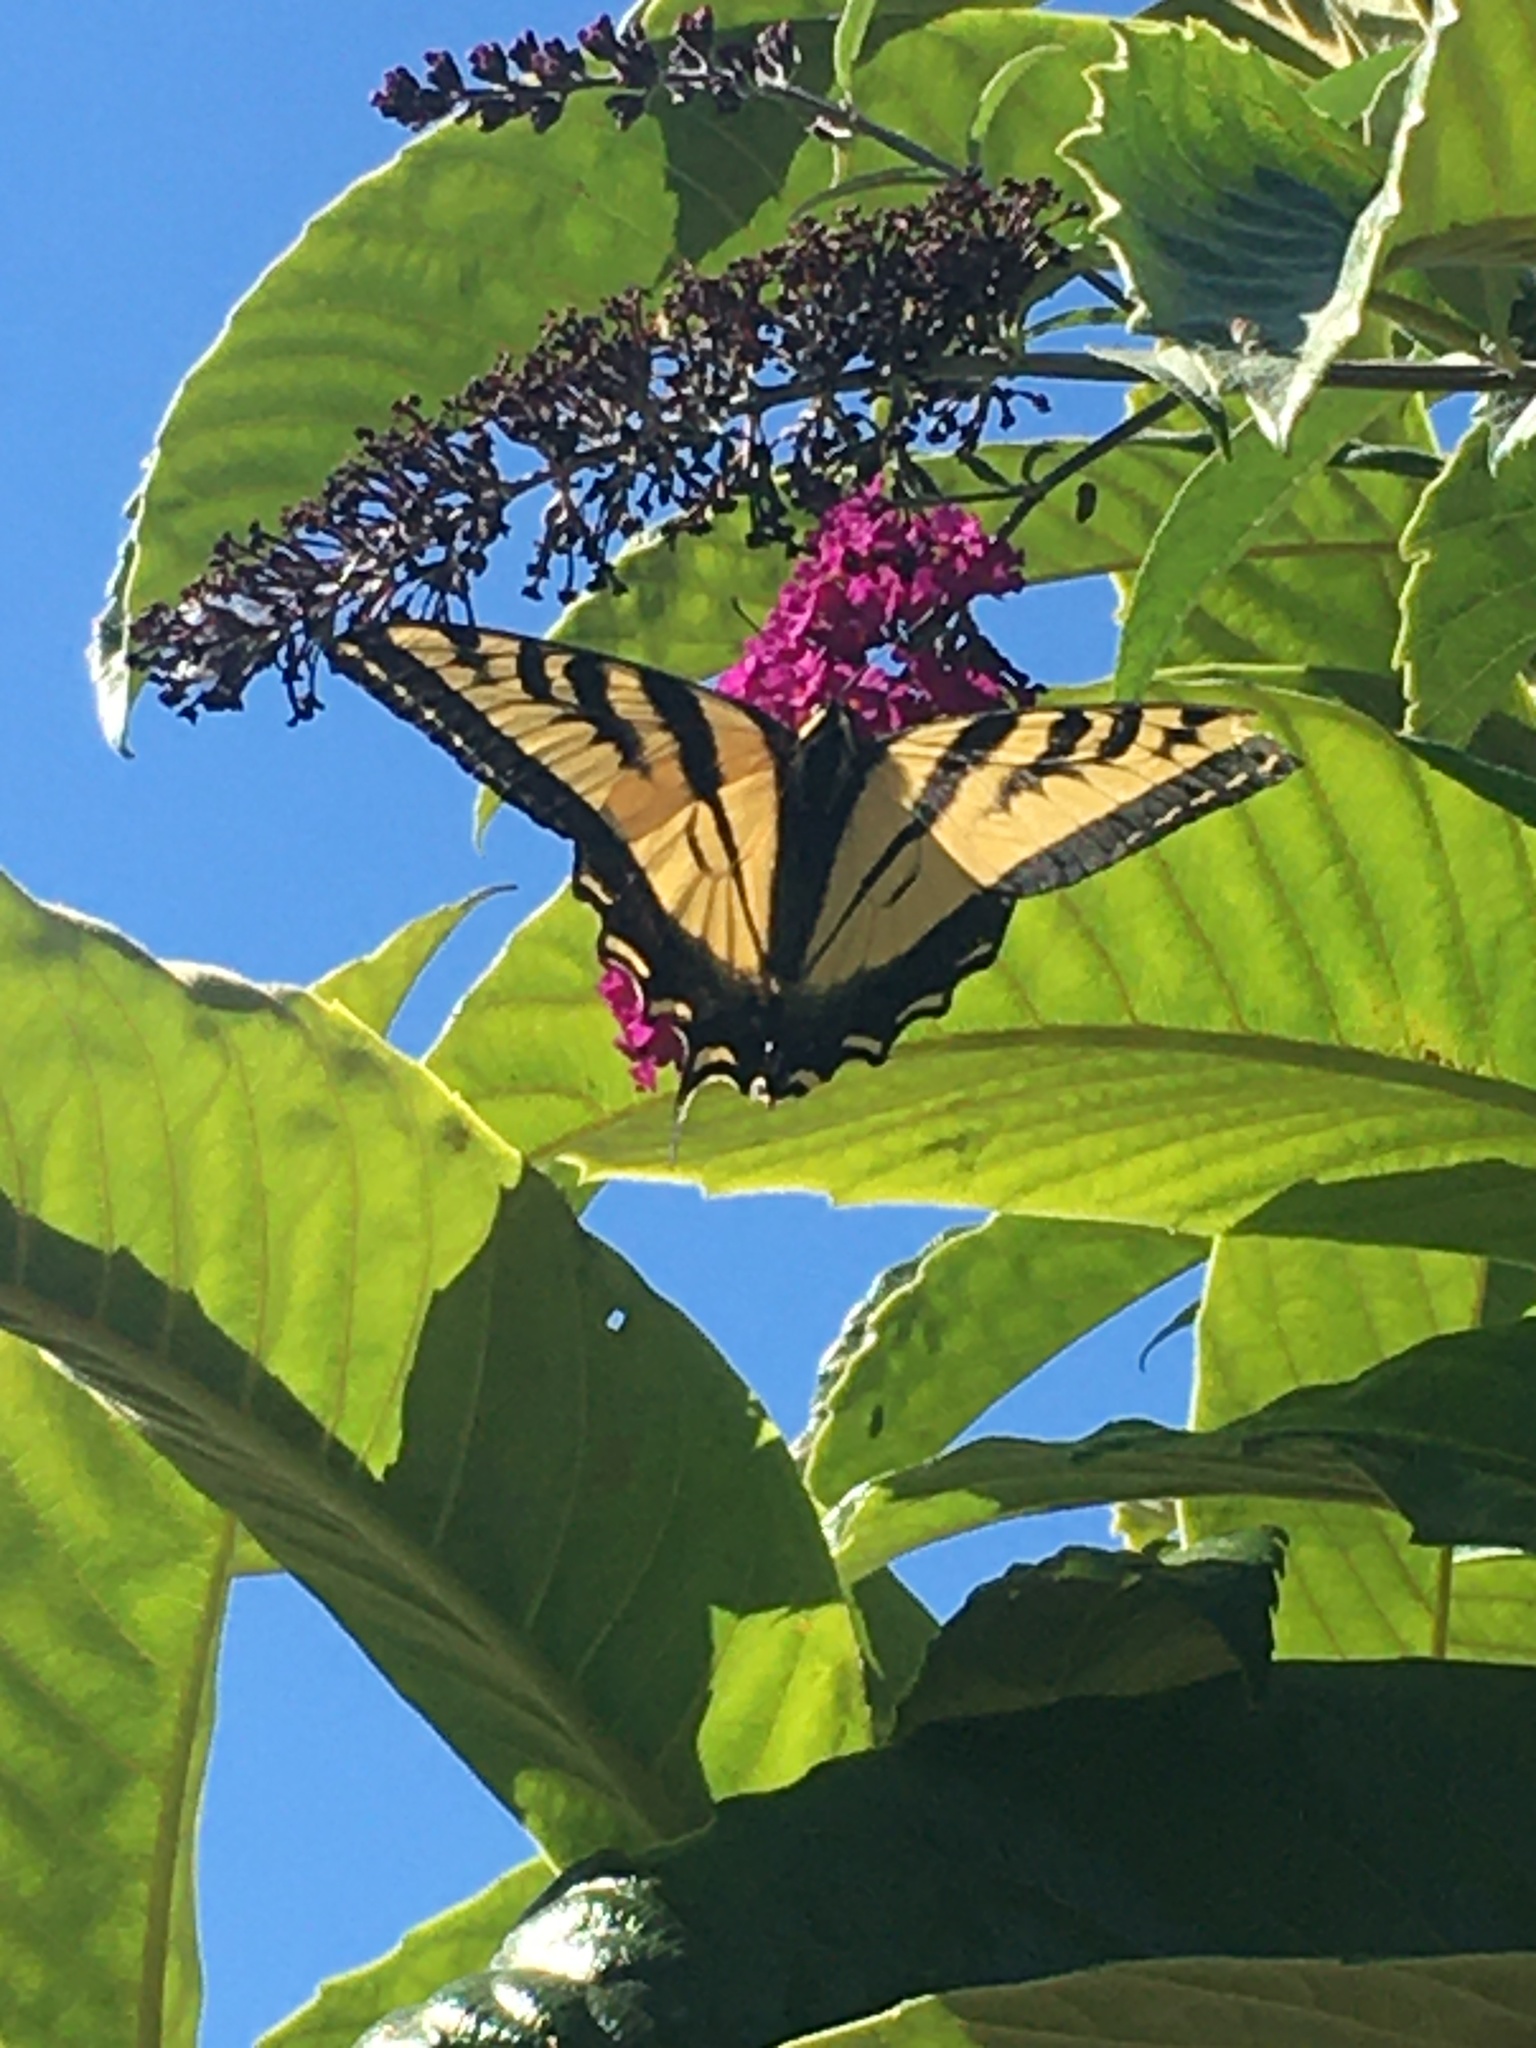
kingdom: Animalia
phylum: Arthropoda
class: Insecta
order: Lepidoptera
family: Papilionidae
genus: Papilio
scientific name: Papilio rutulus
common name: Western tiger swallowtail
